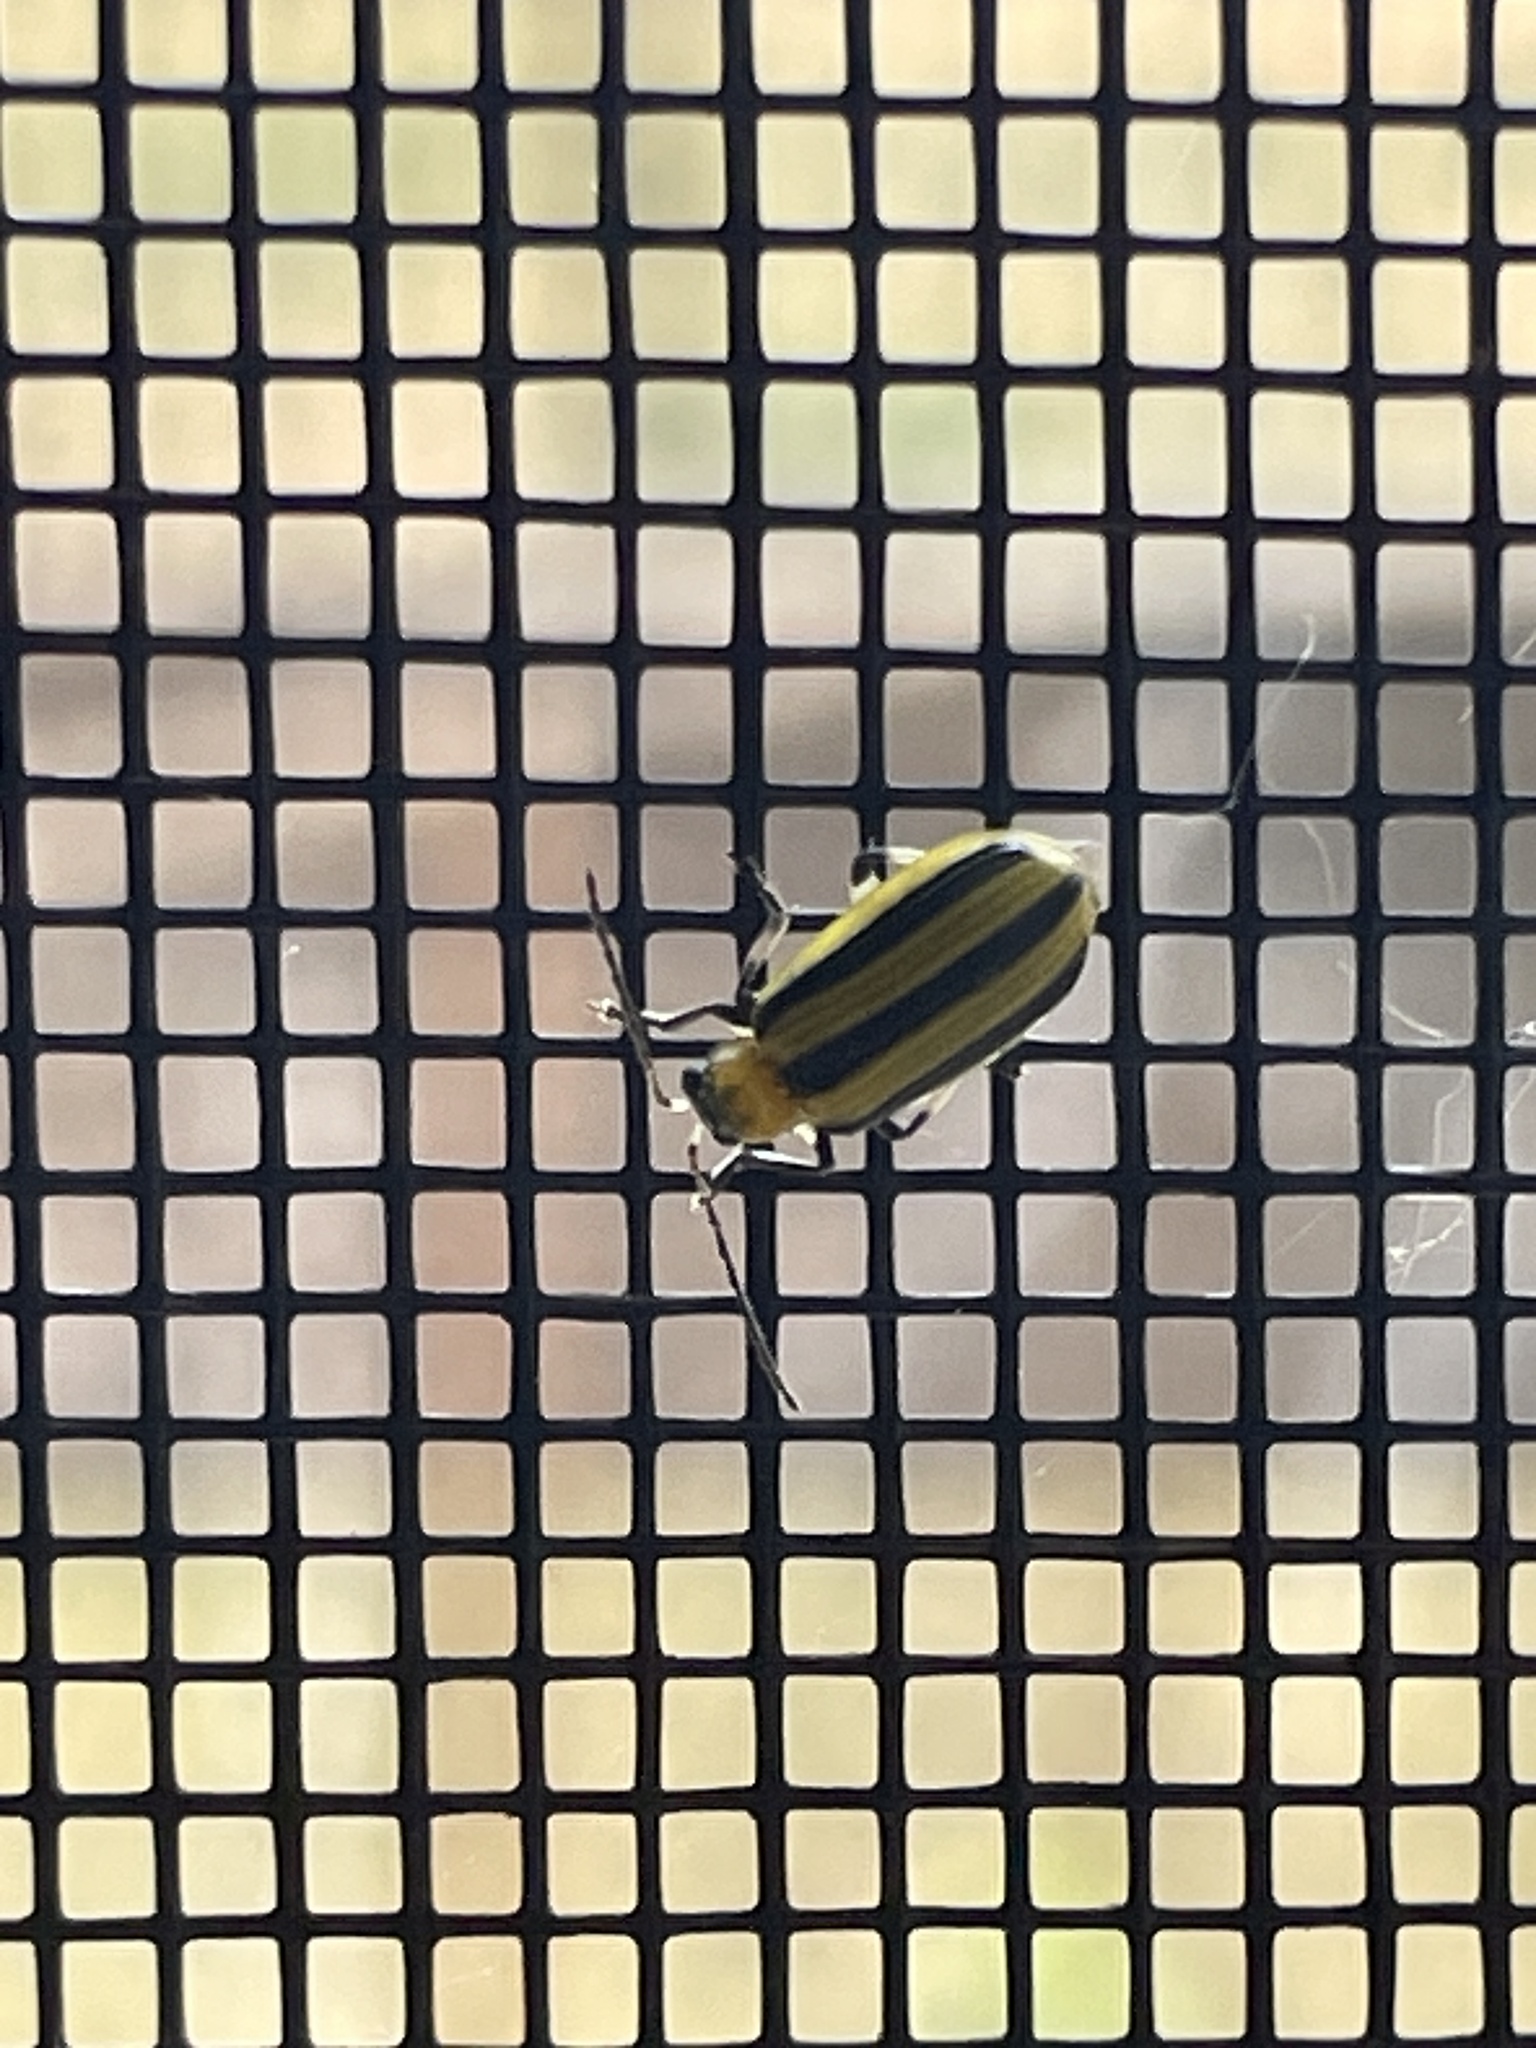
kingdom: Animalia
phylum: Arthropoda
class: Insecta
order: Coleoptera
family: Chrysomelidae
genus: Acalymma
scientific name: Acalymma vittatum
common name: Striped cucumber beetle
